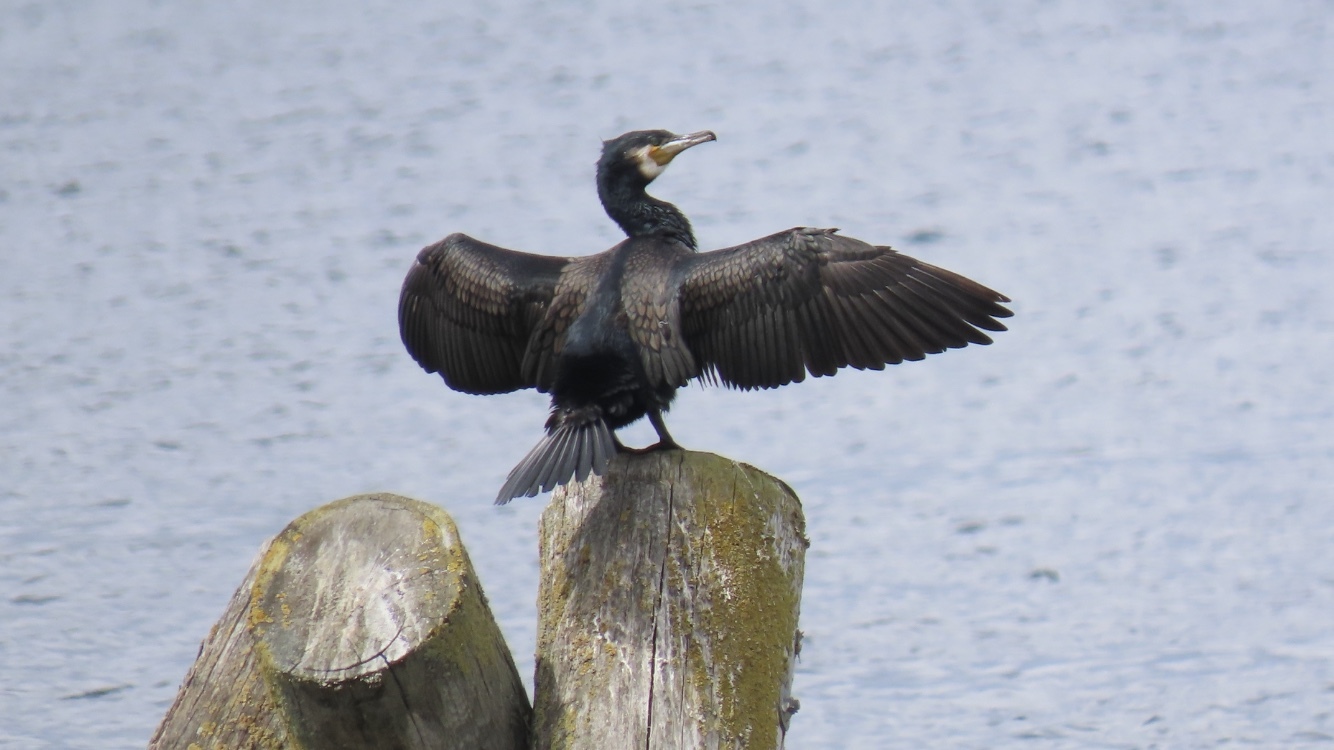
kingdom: Animalia
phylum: Chordata
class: Aves
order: Suliformes
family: Phalacrocoracidae
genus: Phalacrocorax
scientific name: Phalacrocorax carbo
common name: Great cormorant
